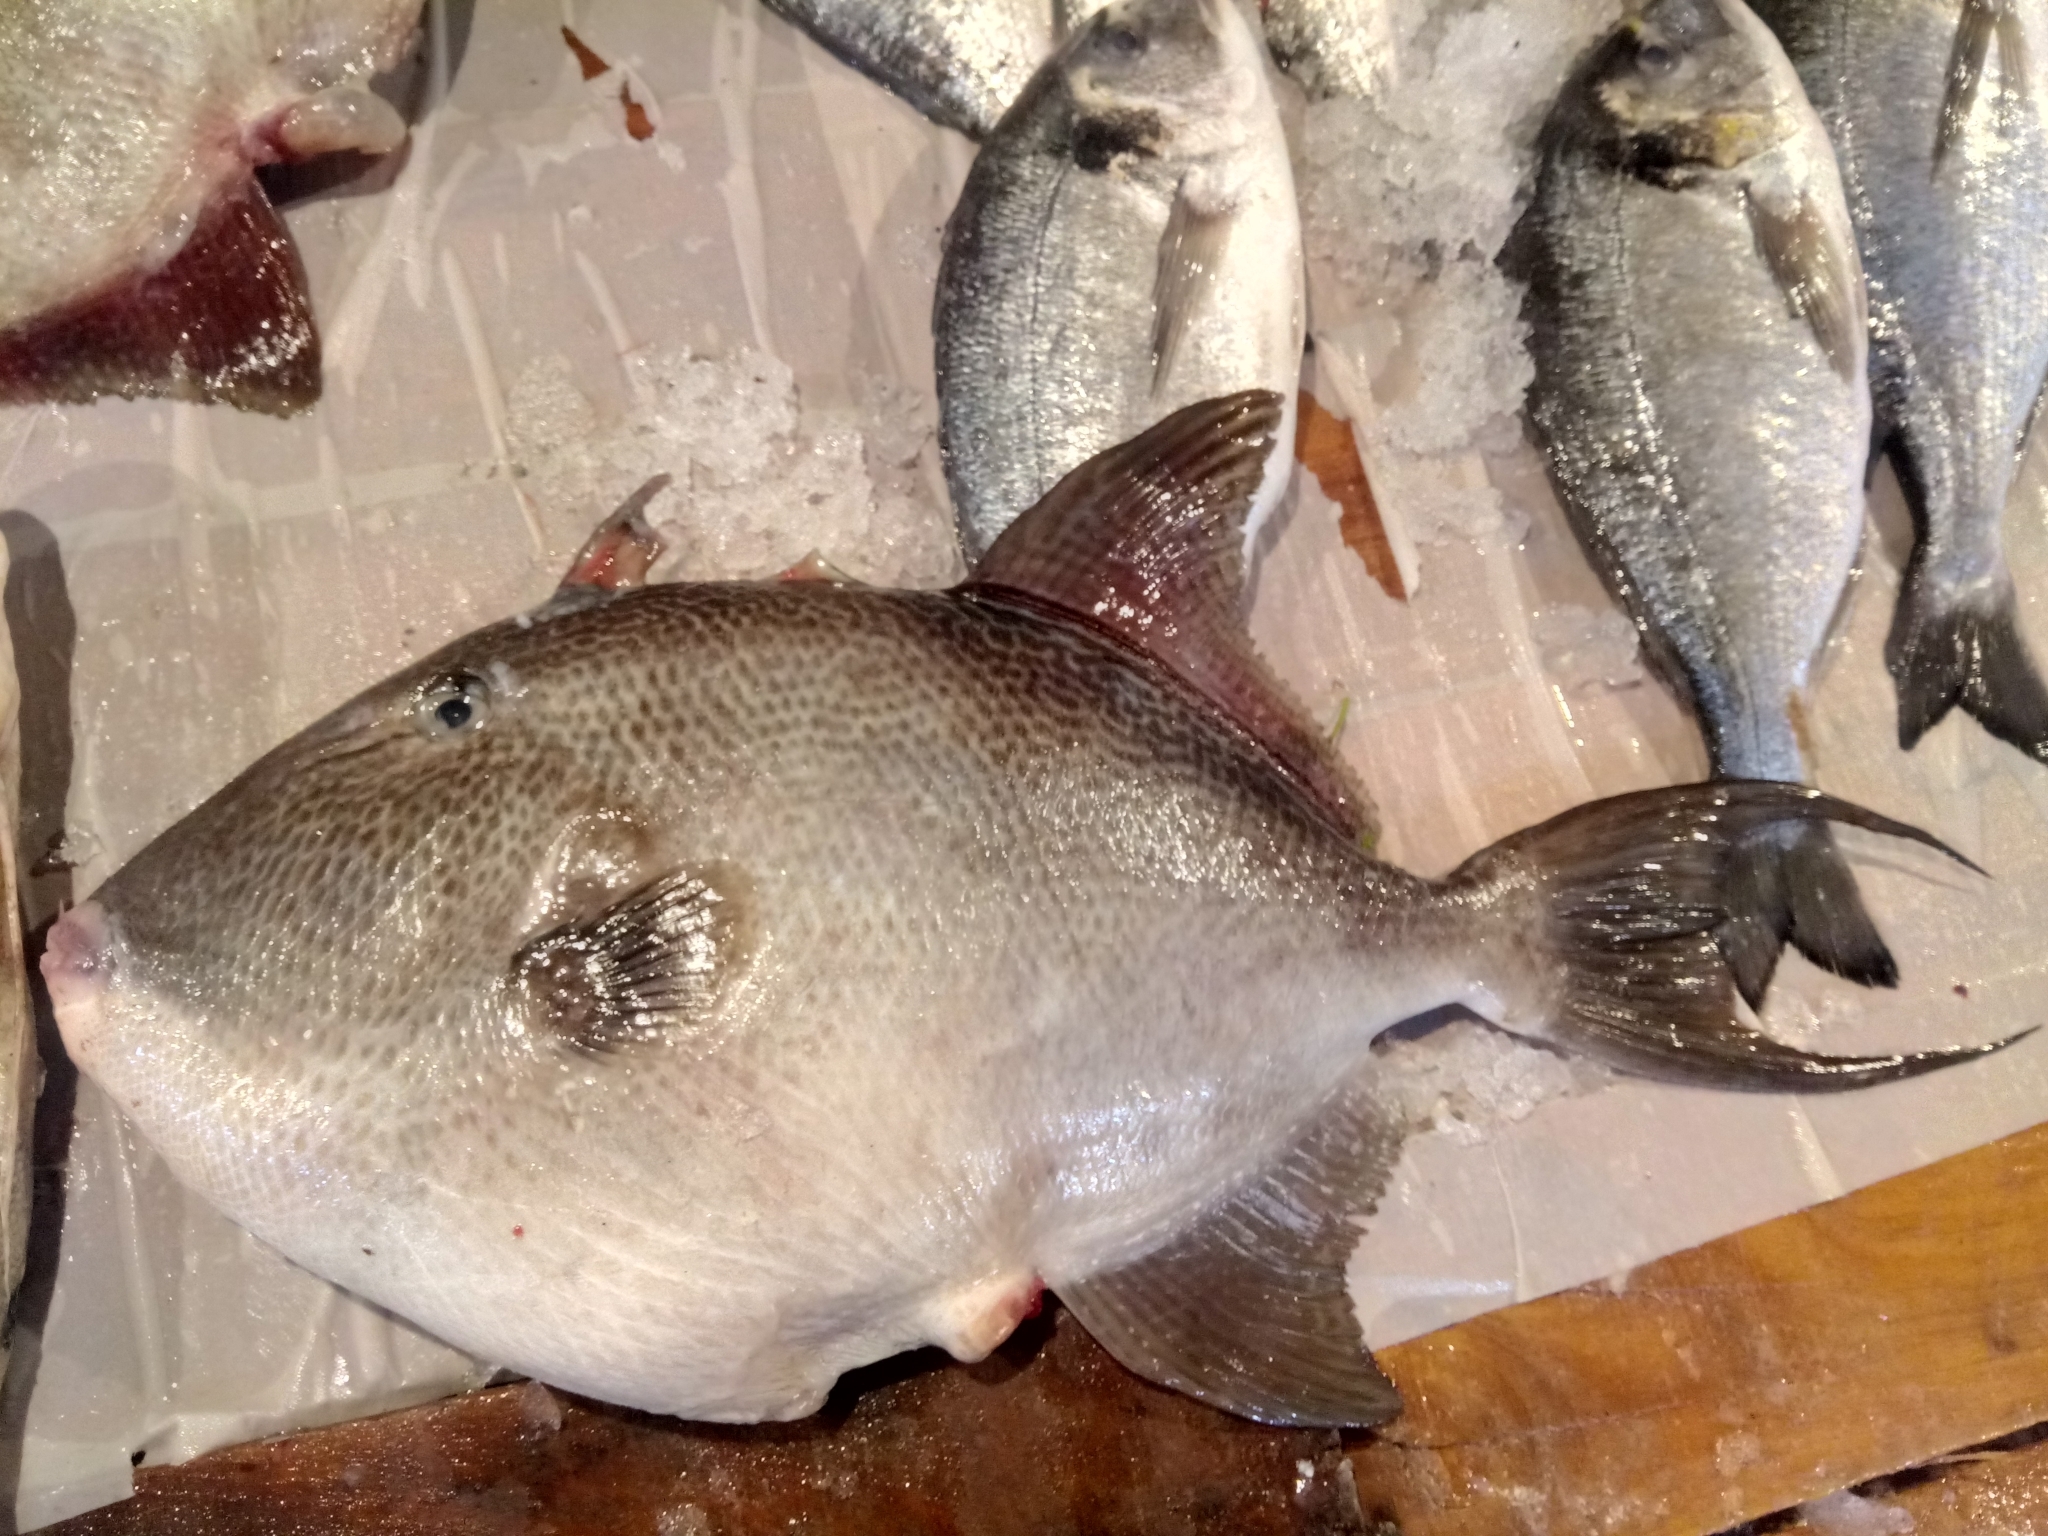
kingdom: Animalia
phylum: Chordata
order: Tetraodontiformes
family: Balistidae
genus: Balistes
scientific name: Balistes capriscus
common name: Grey triggerfish
